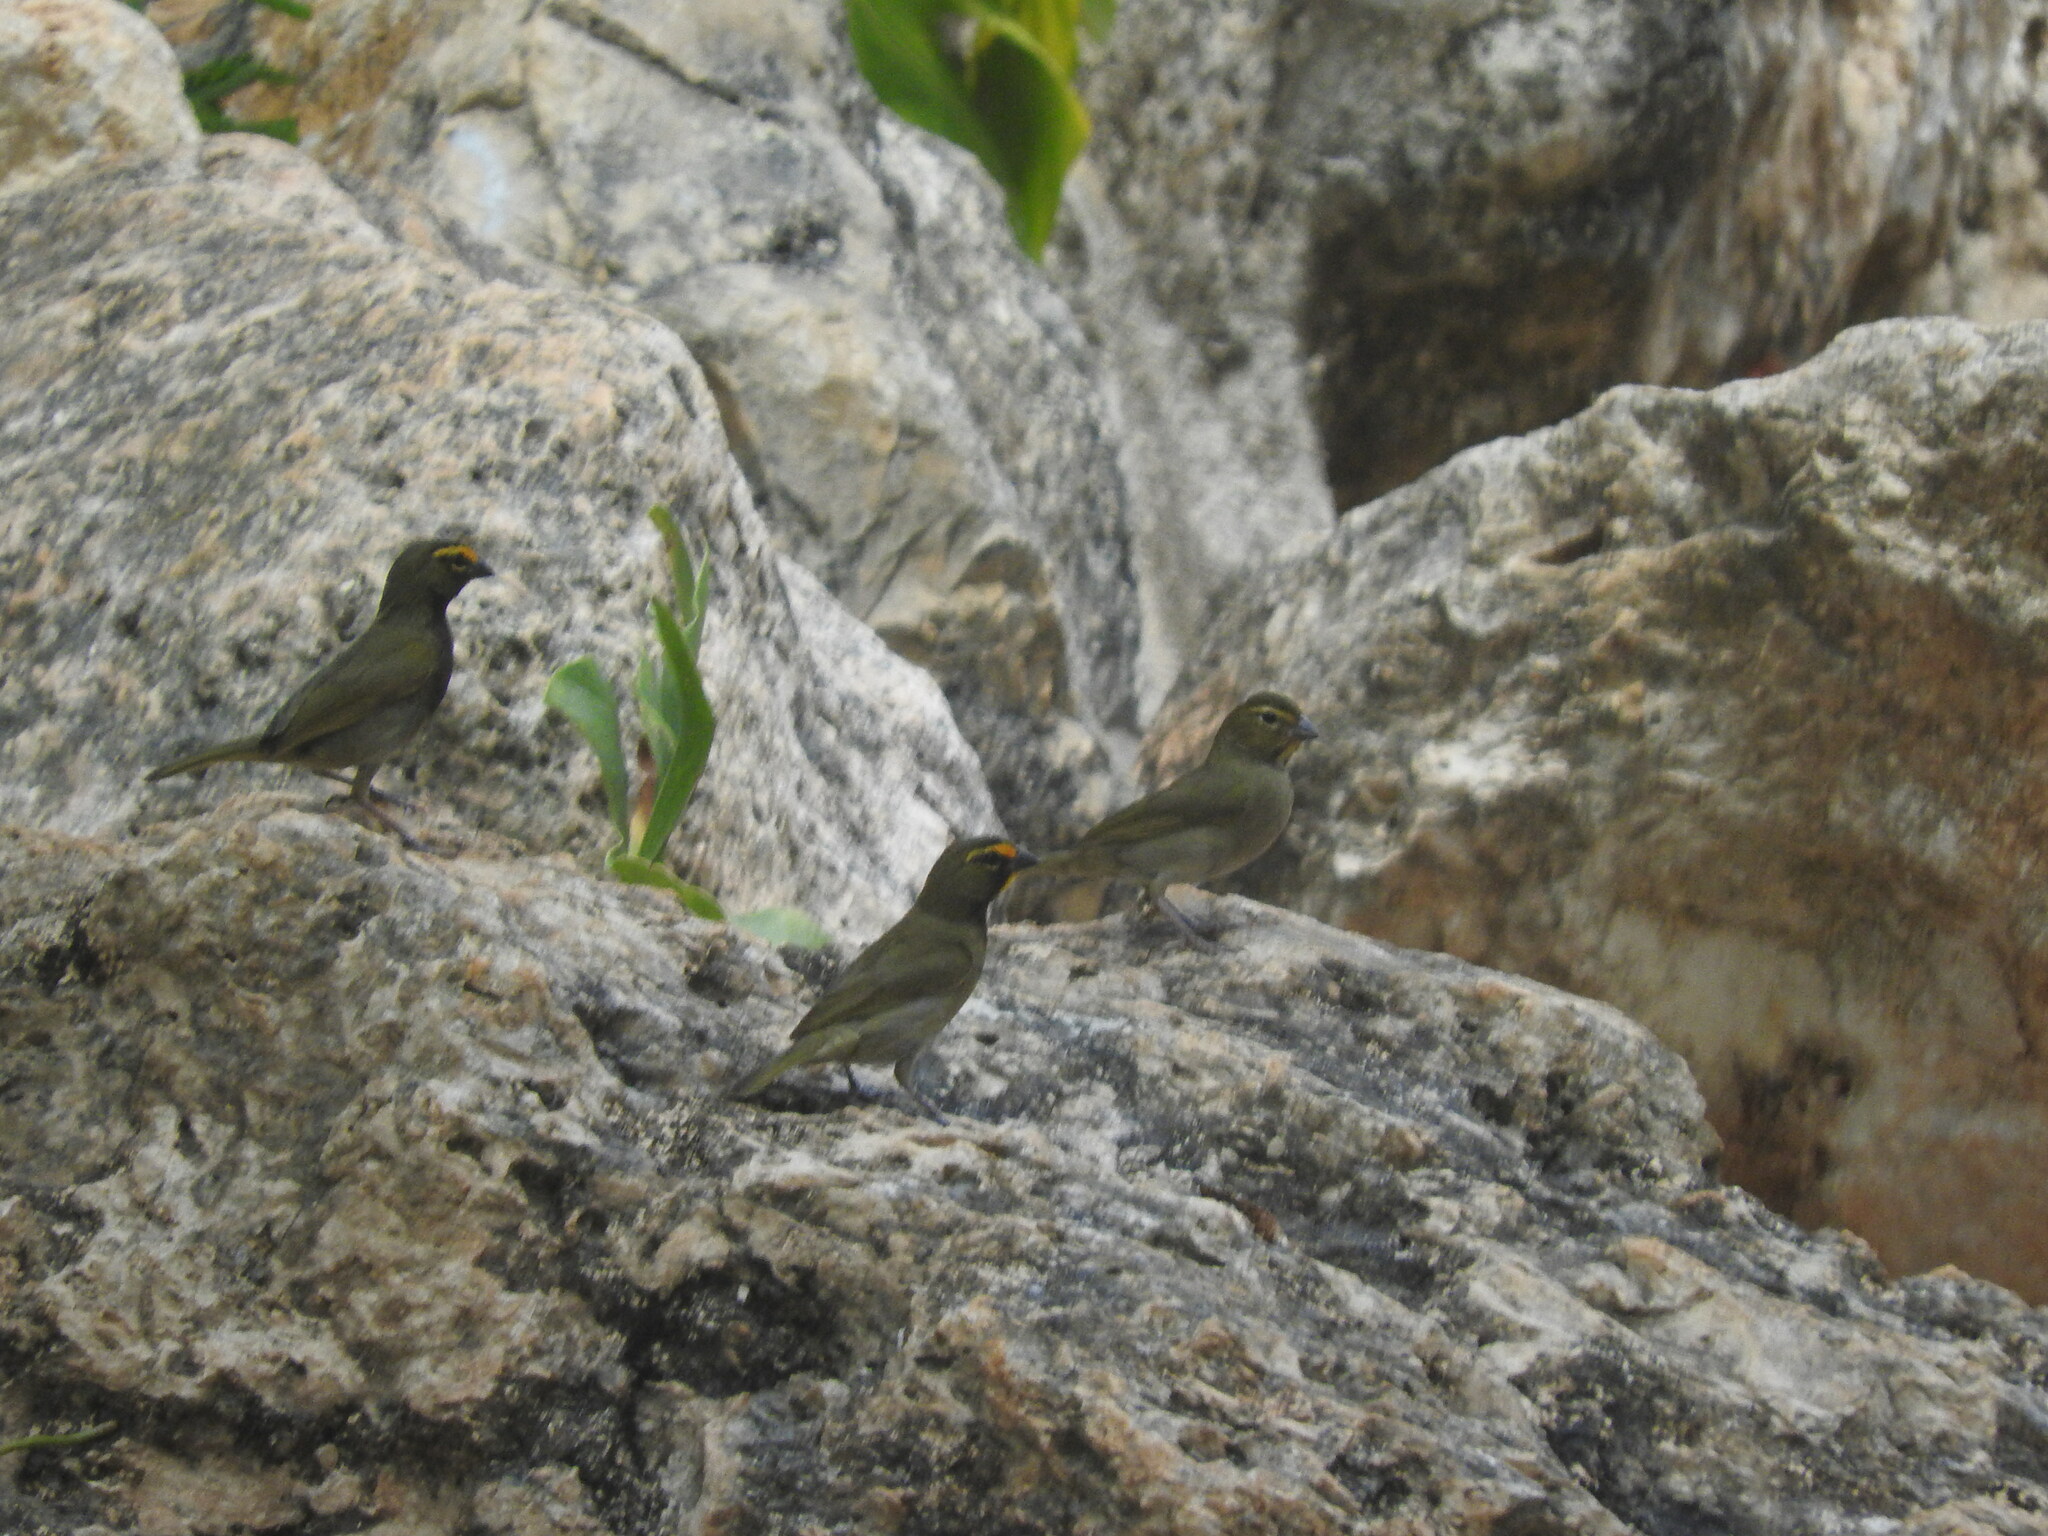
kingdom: Animalia
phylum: Chordata
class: Aves
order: Passeriformes
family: Thraupidae
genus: Tiaris
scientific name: Tiaris olivaceus
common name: Yellow-faced grassquit
